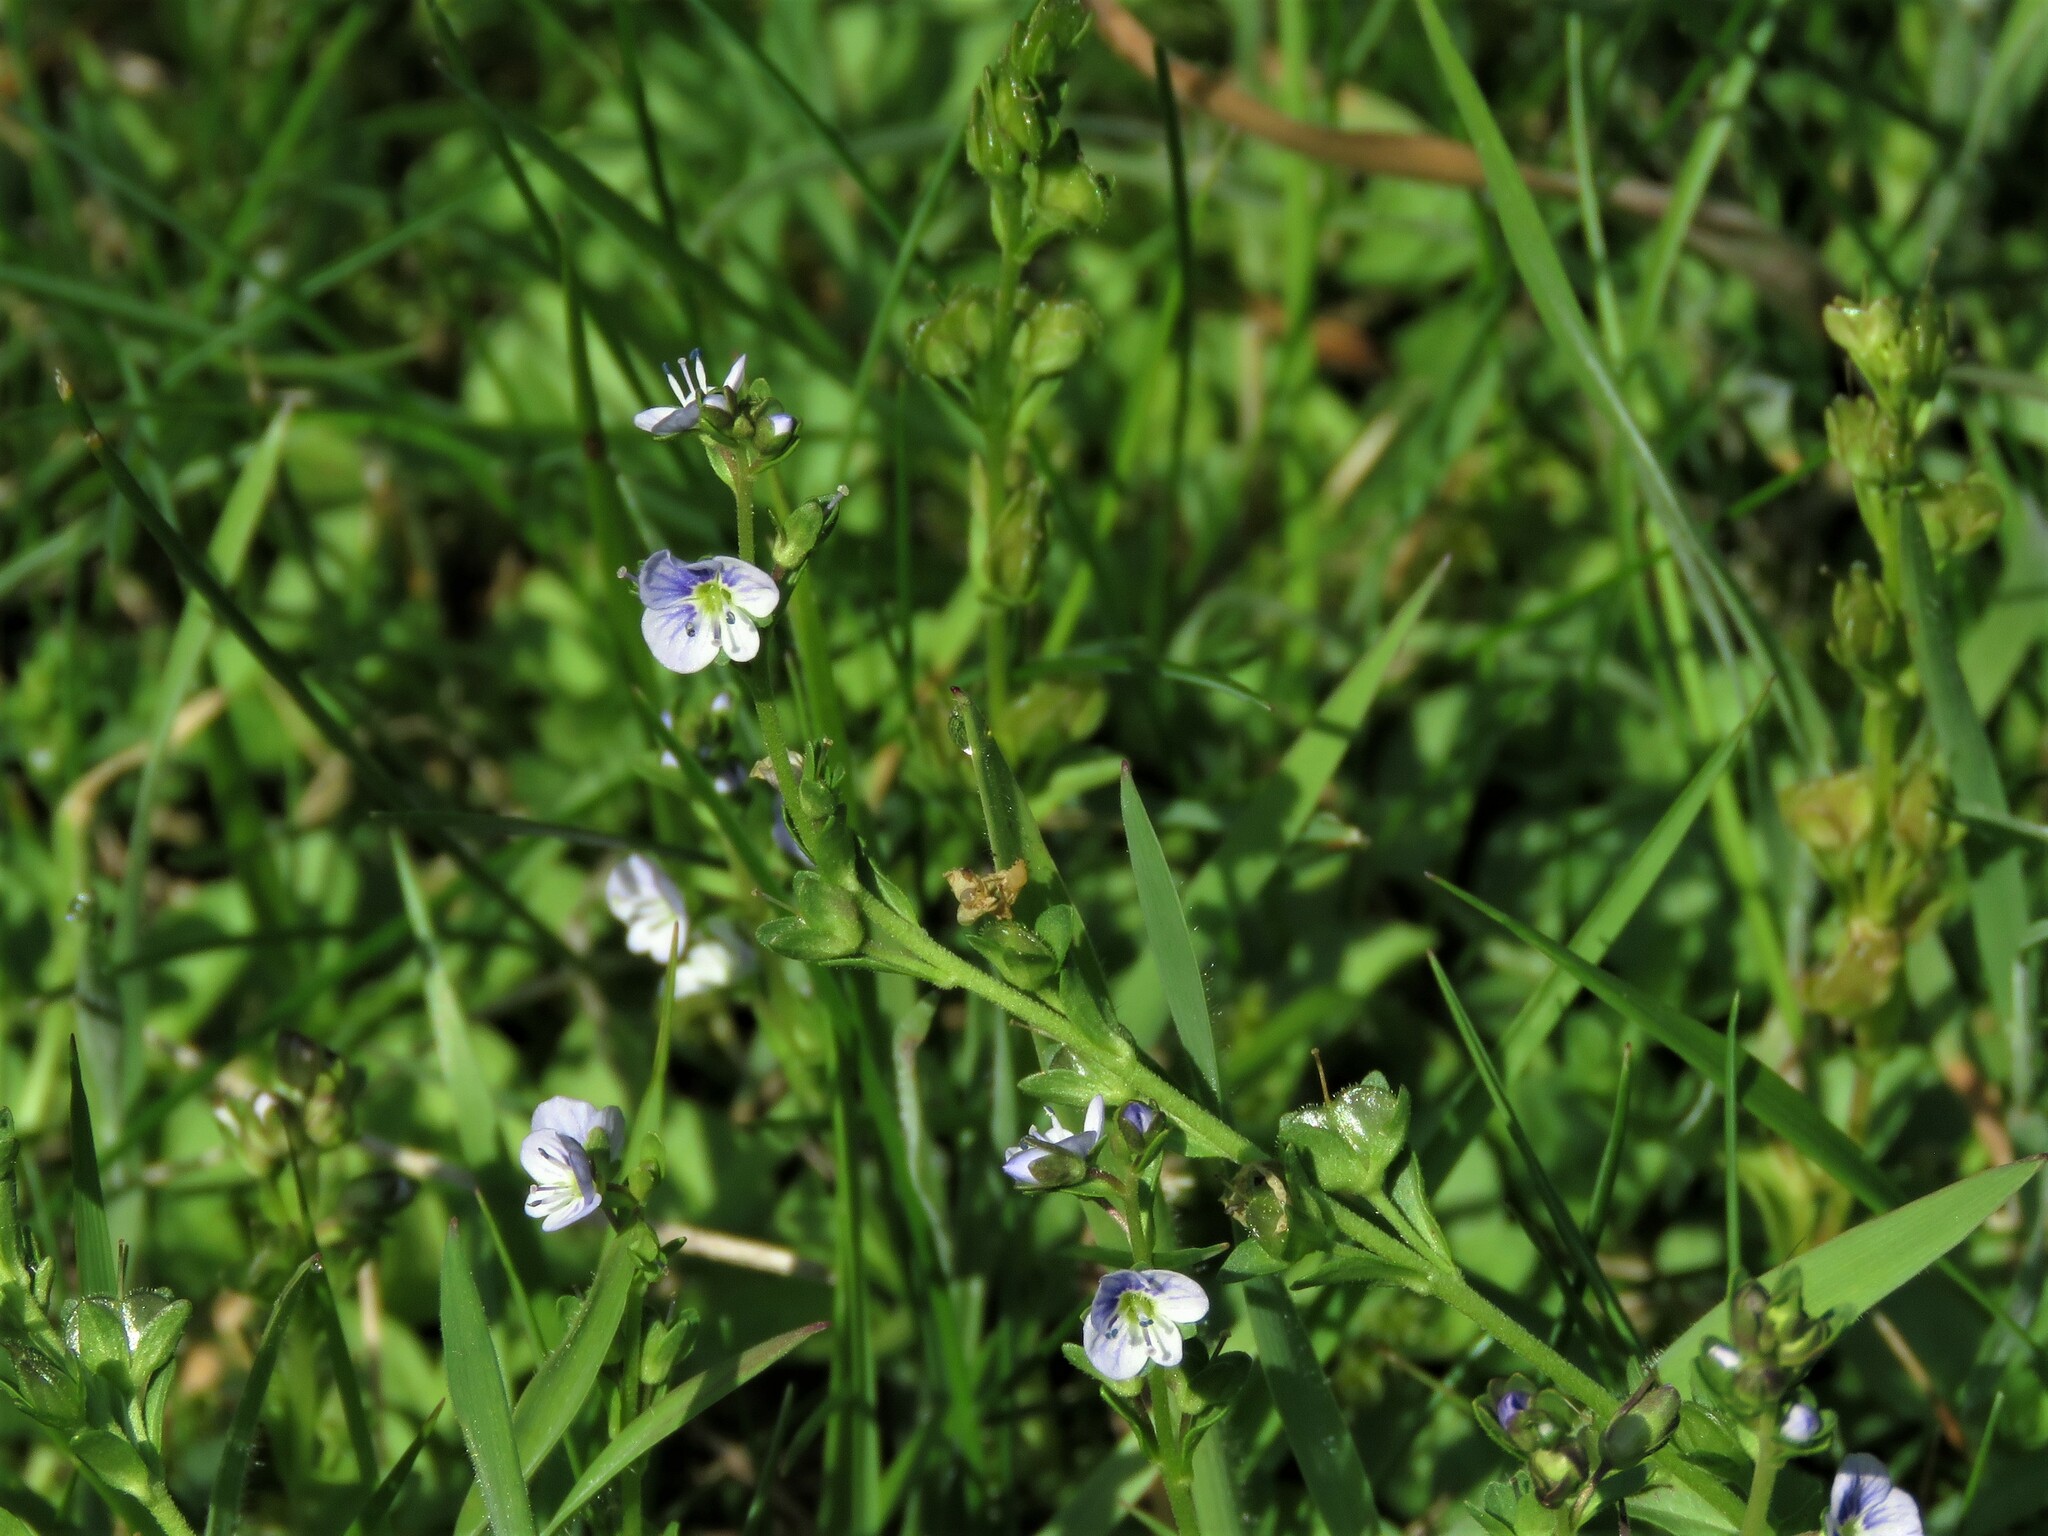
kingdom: Plantae
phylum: Tracheophyta
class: Magnoliopsida
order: Lamiales
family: Plantaginaceae
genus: Veronica
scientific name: Veronica serpyllifolia
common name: Thyme-leaved speedwell
